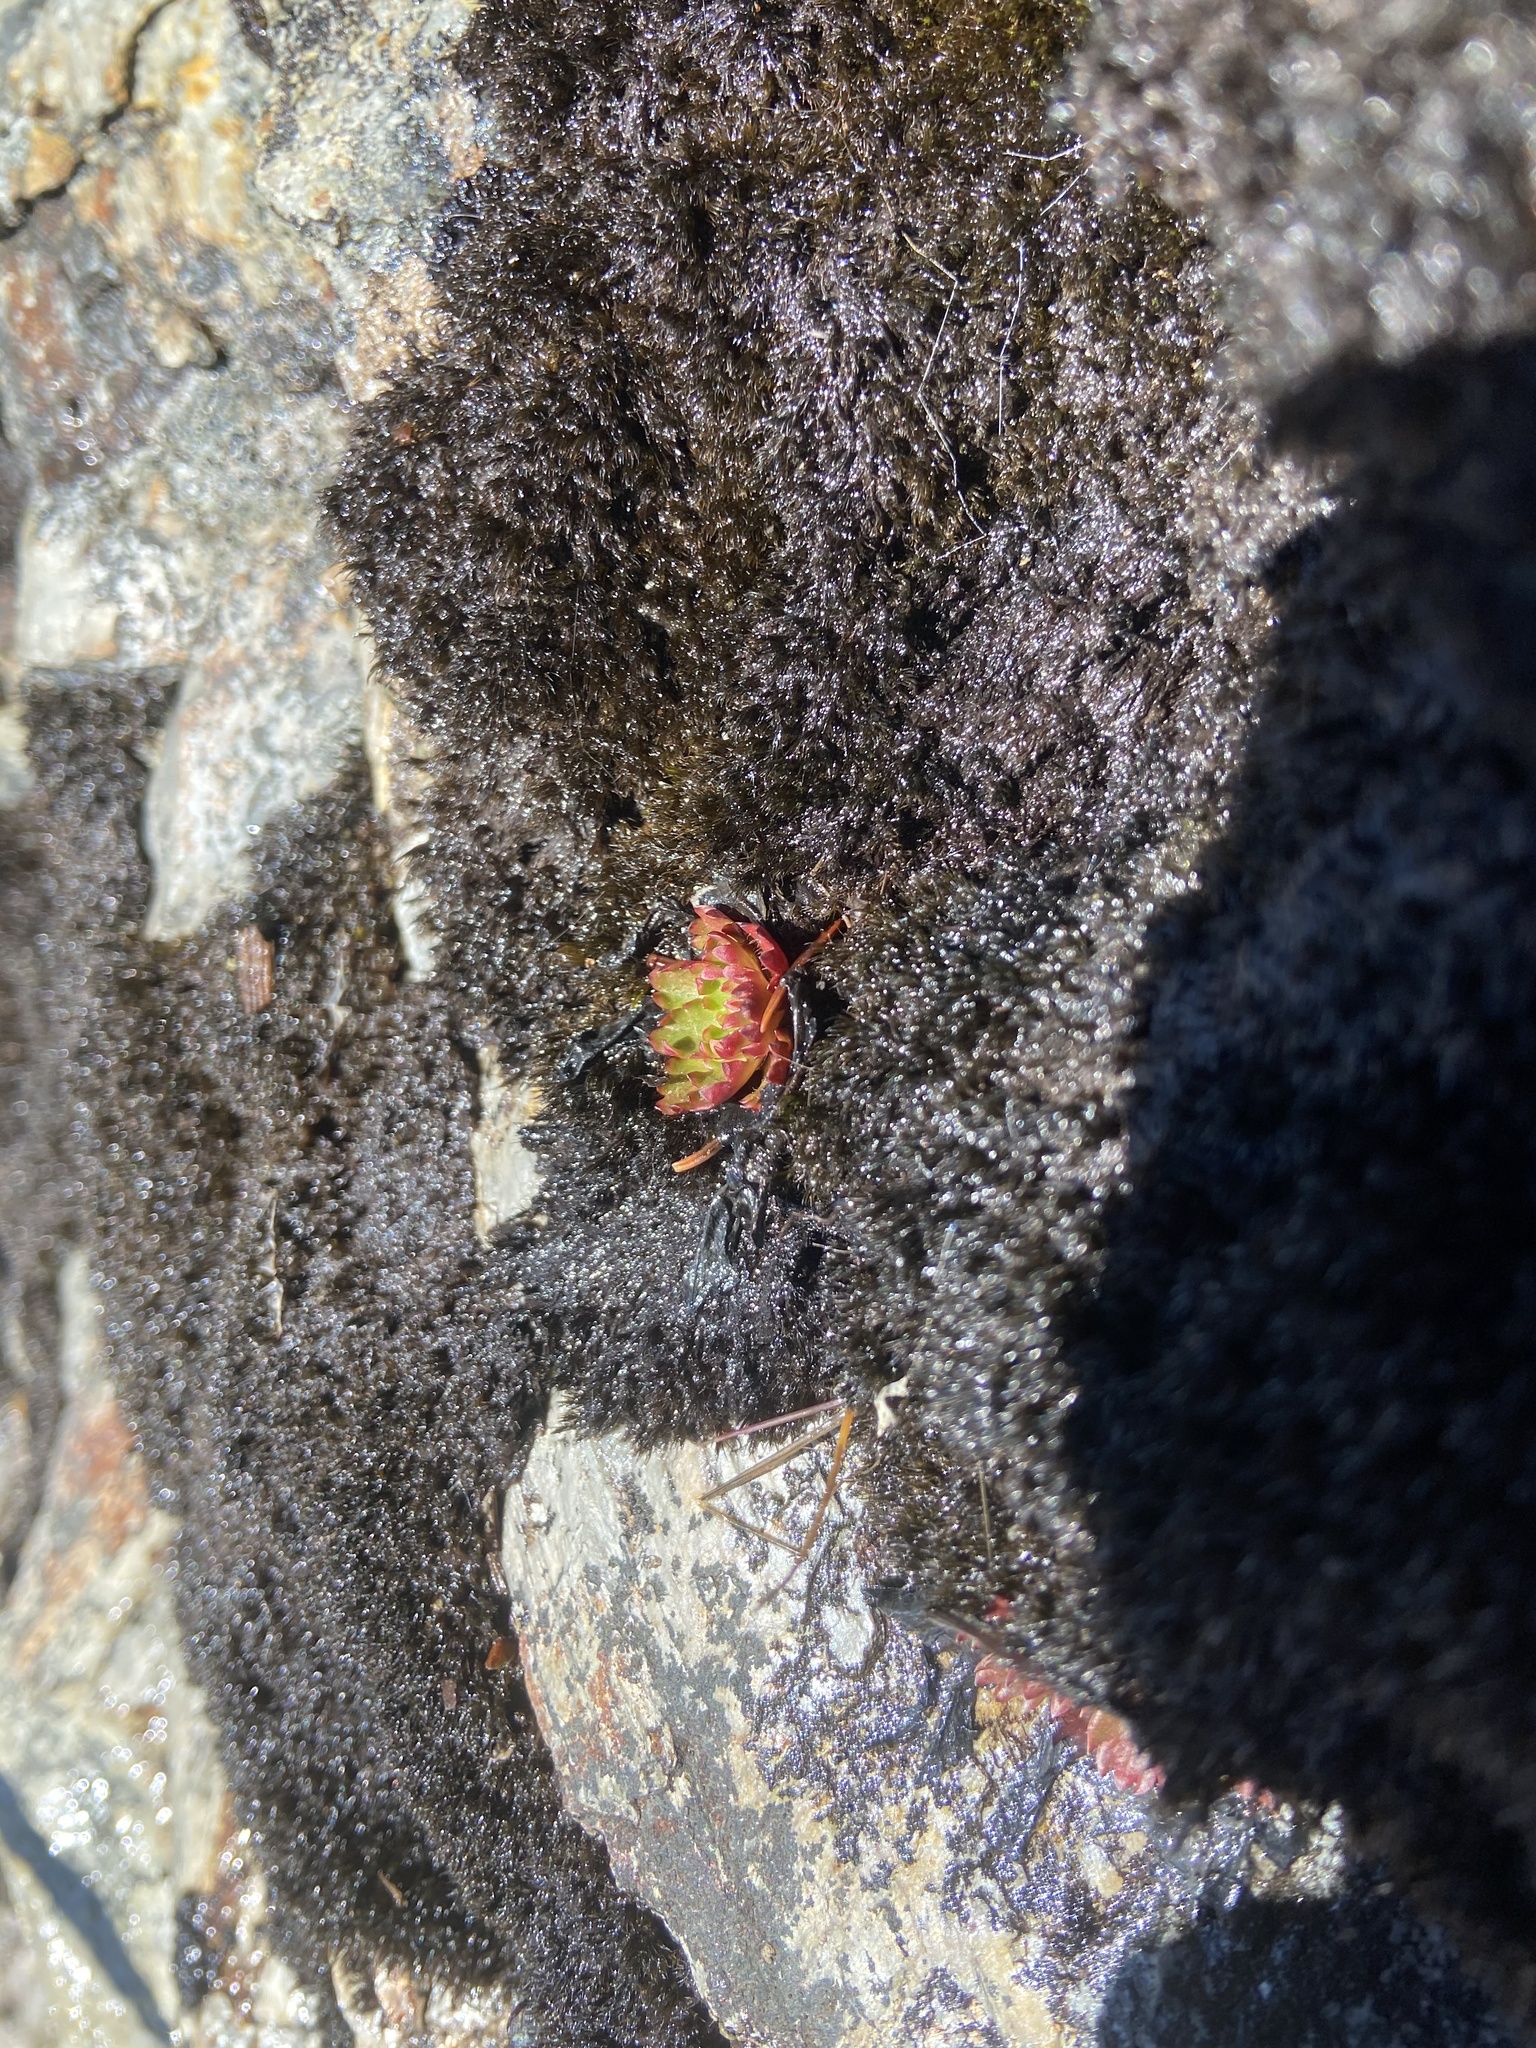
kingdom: Plantae
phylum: Tracheophyta
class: Magnoliopsida
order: Saxifragales
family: Saxifragaceae
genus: Micranthes
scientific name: Micranthes petiolaris
